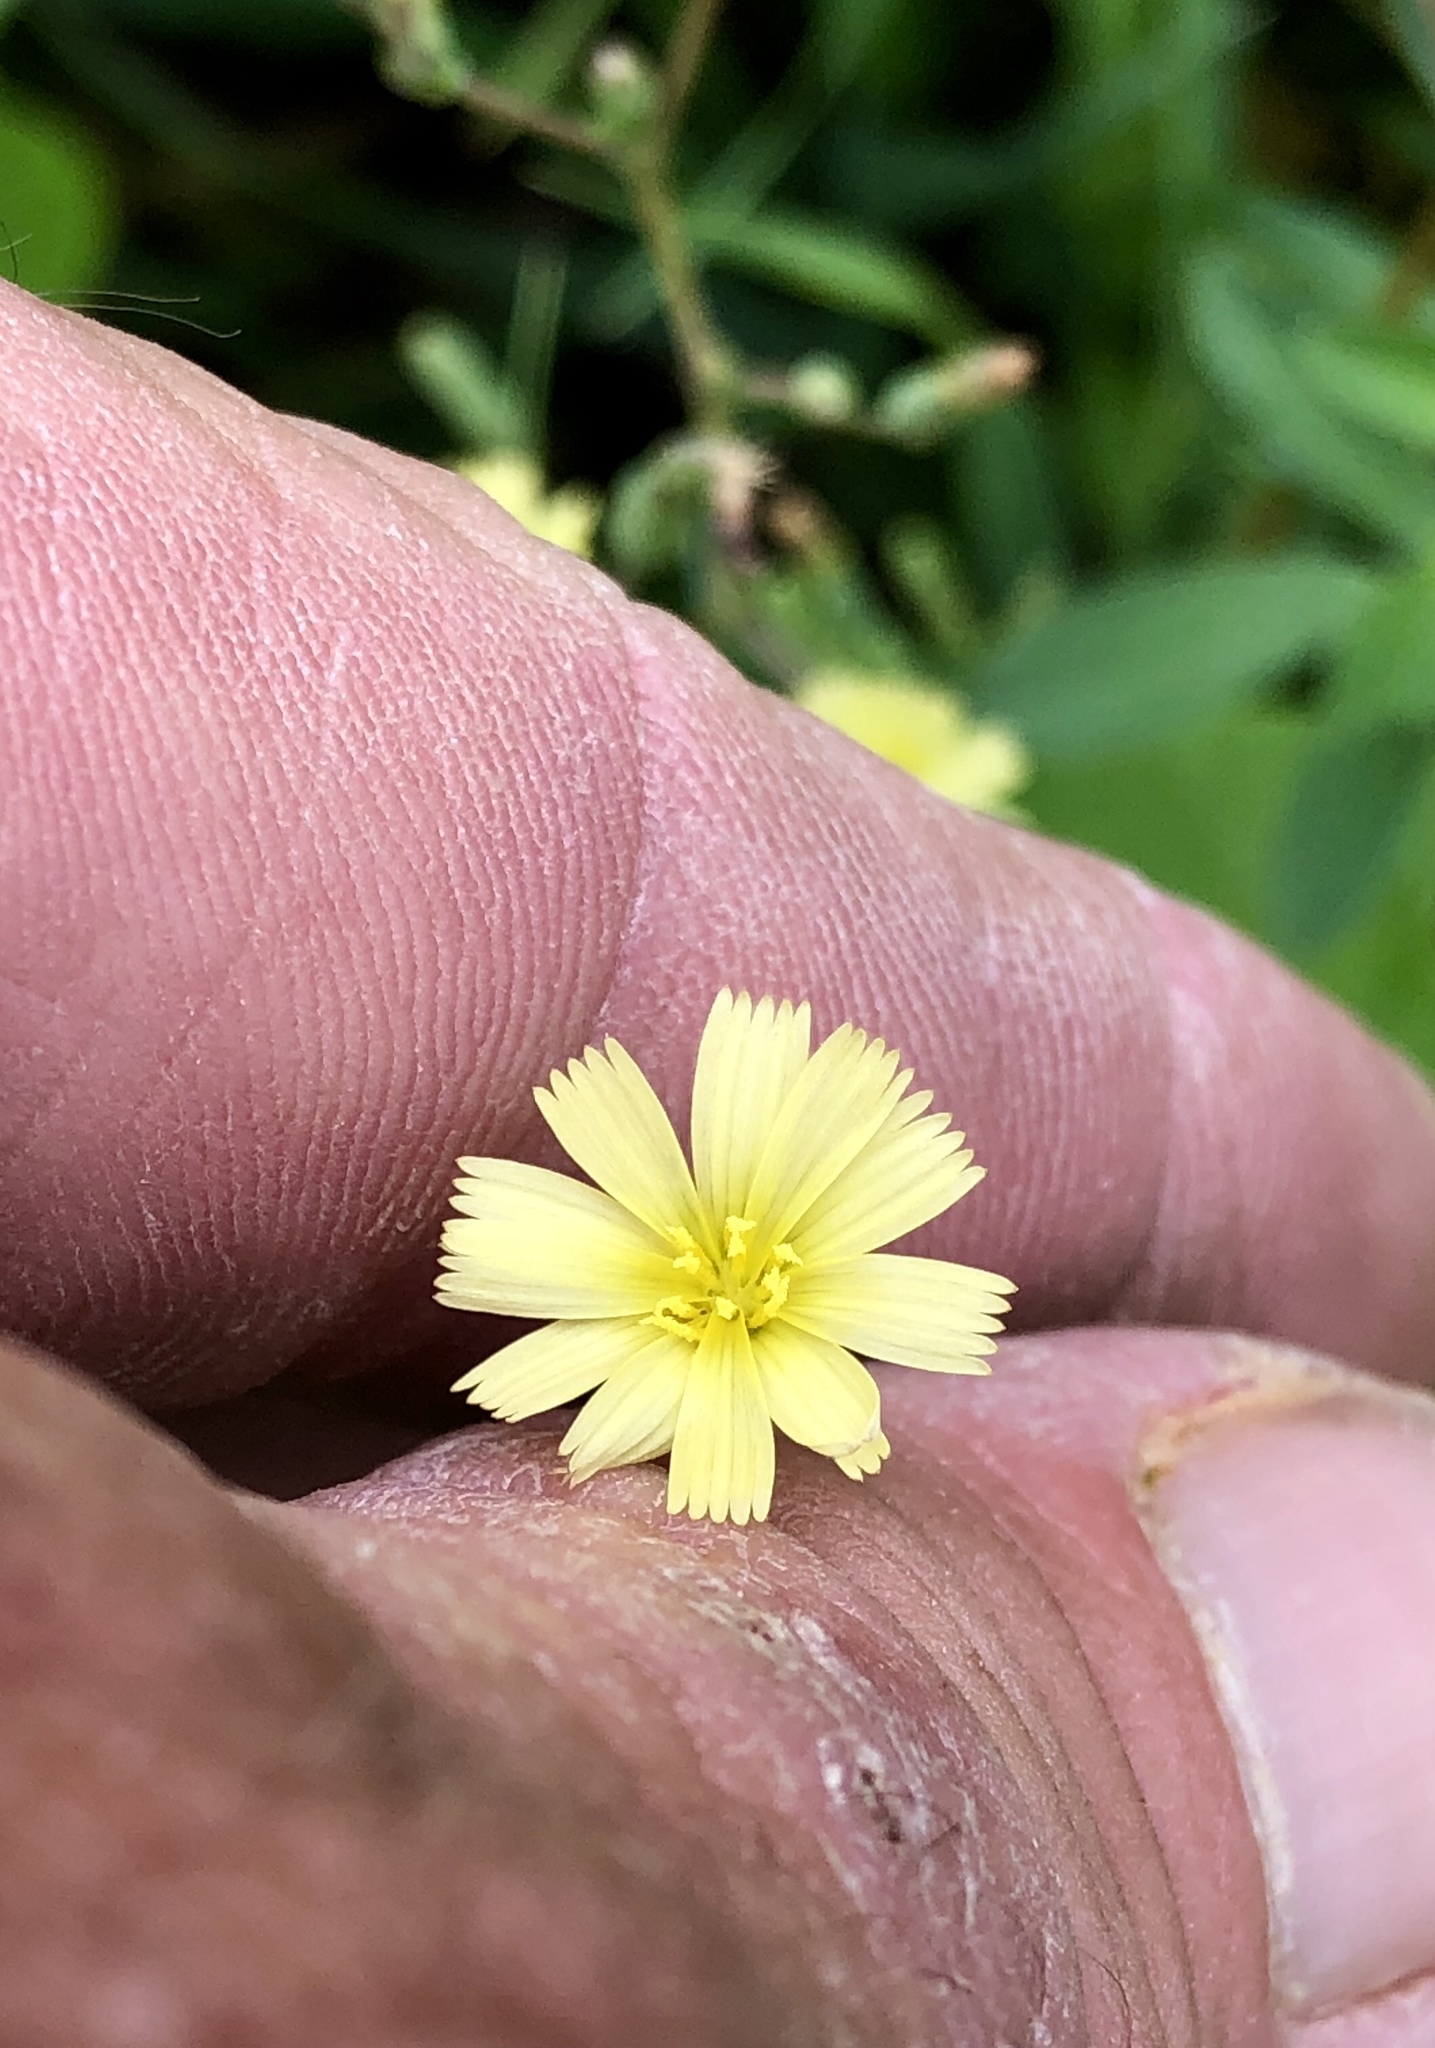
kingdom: Plantae
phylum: Tracheophyta
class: Magnoliopsida
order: Asterales
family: Asteraceae
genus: Lactuca
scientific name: Lactuca serriola
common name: Prickly lettuce
